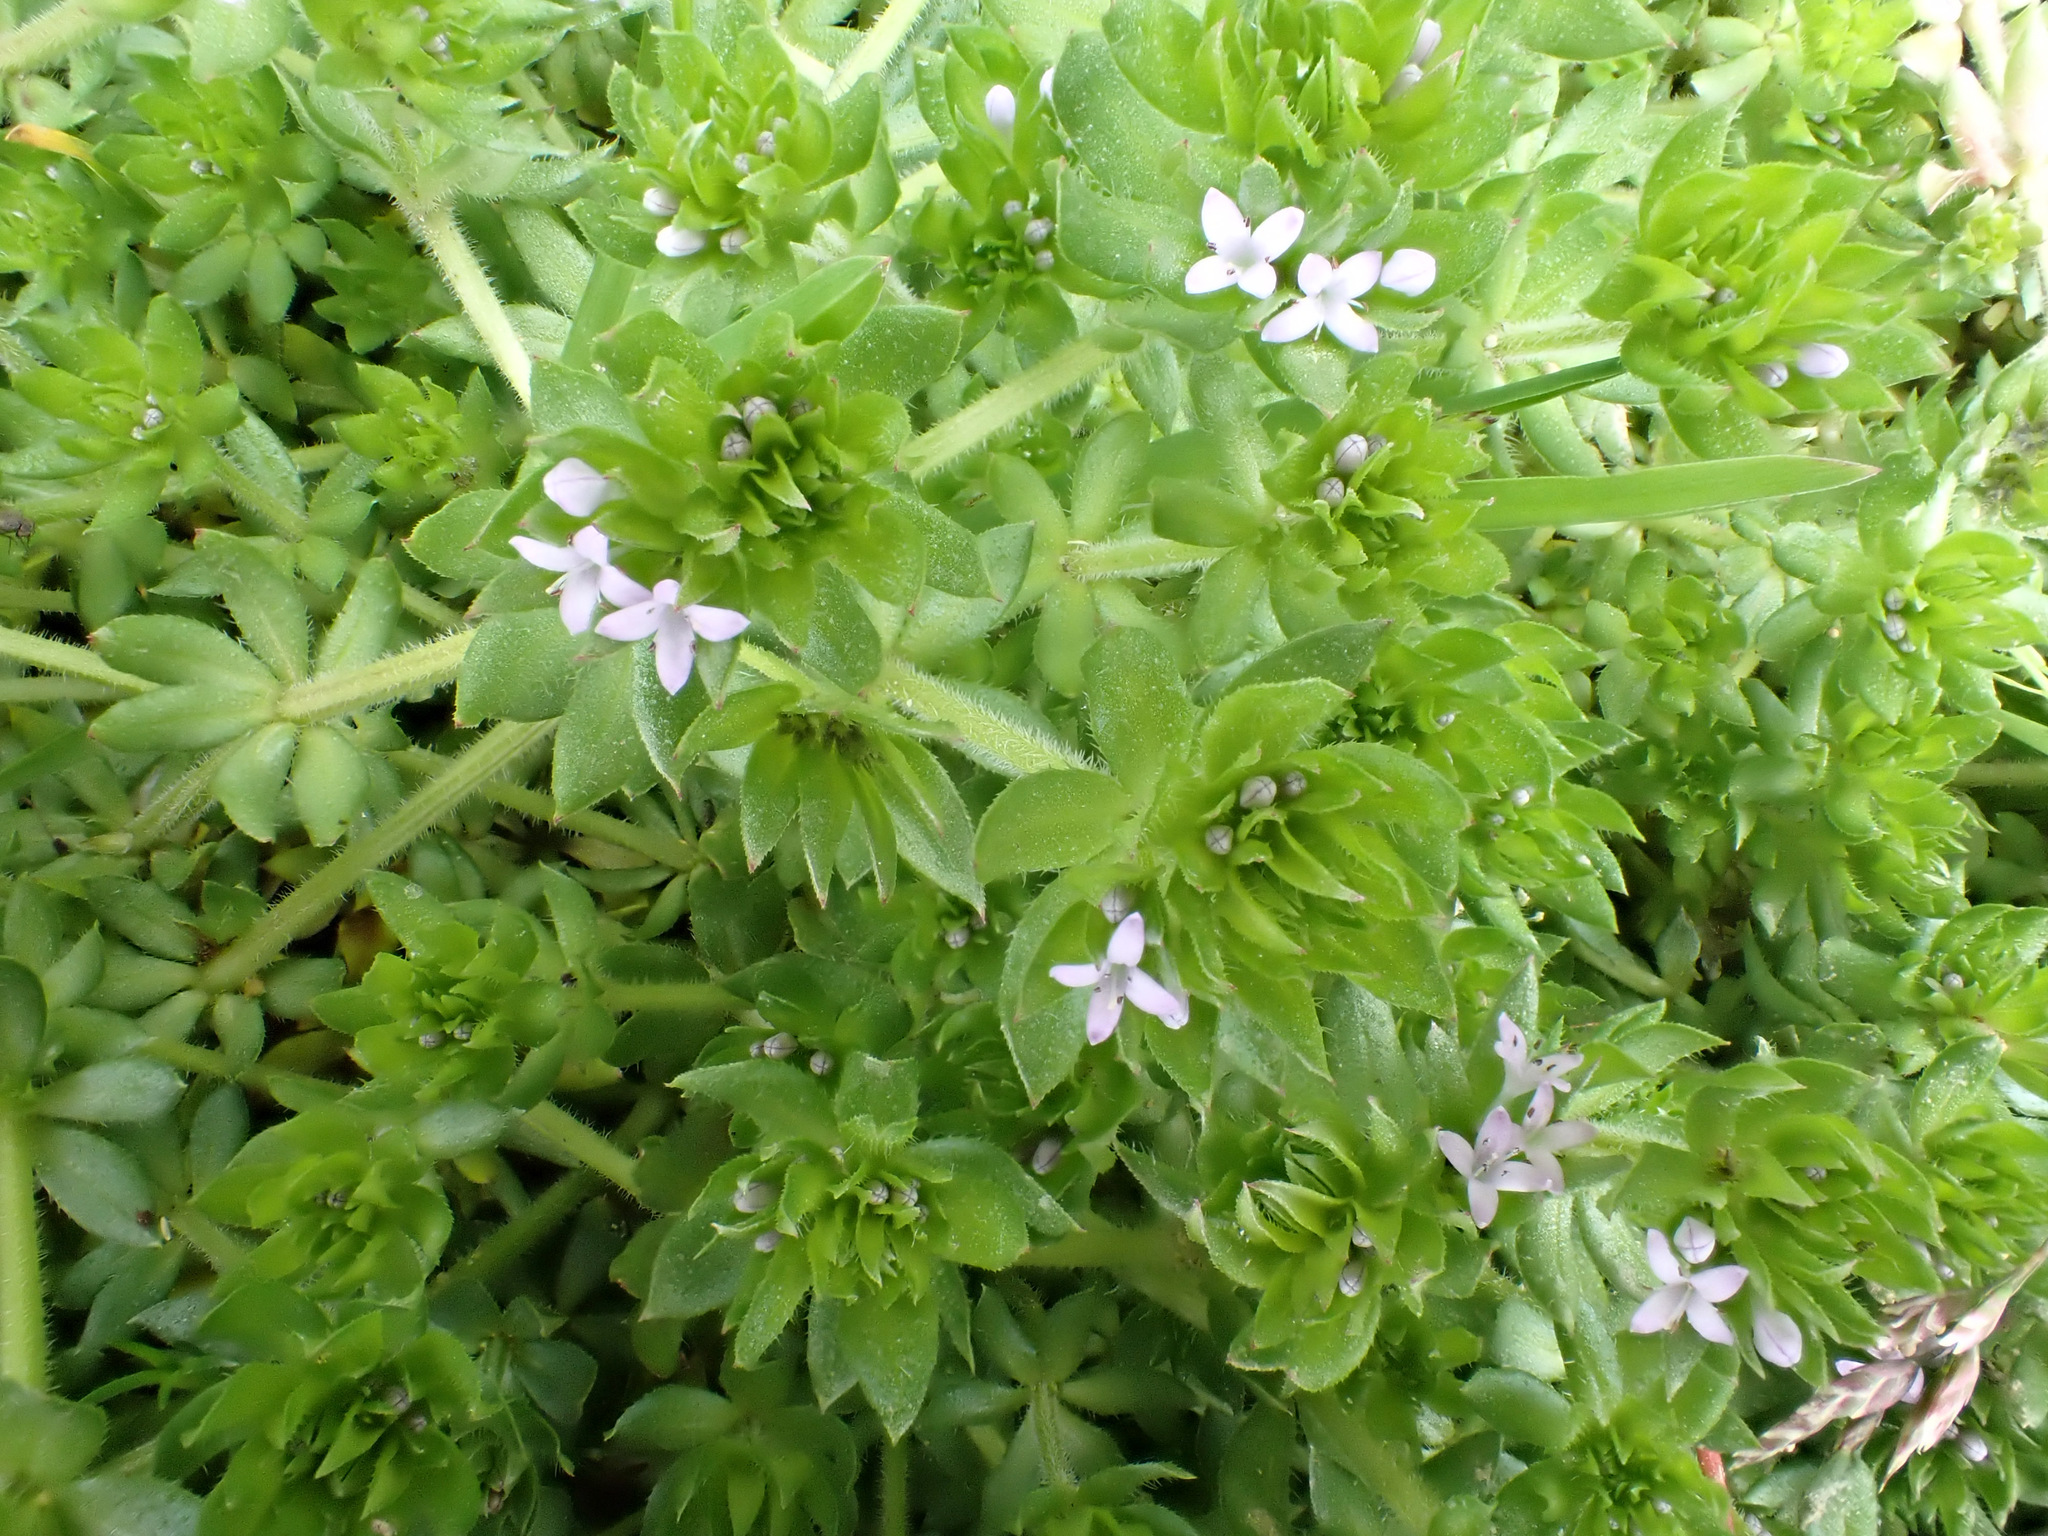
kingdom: Plantae
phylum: Tracheophyta
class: Magnoliopsida
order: Gentianales
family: Rubiaceae
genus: Sherardia
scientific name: Sherardia arvensis
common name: Field madder
